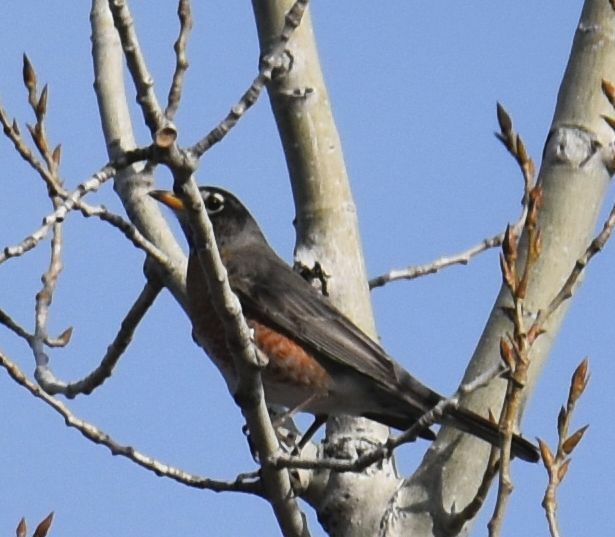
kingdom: Animalia
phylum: Chordata
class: Aves
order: Passeriformes
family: Turdidae
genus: Turdus
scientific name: Turdus migratorius
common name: American robin
